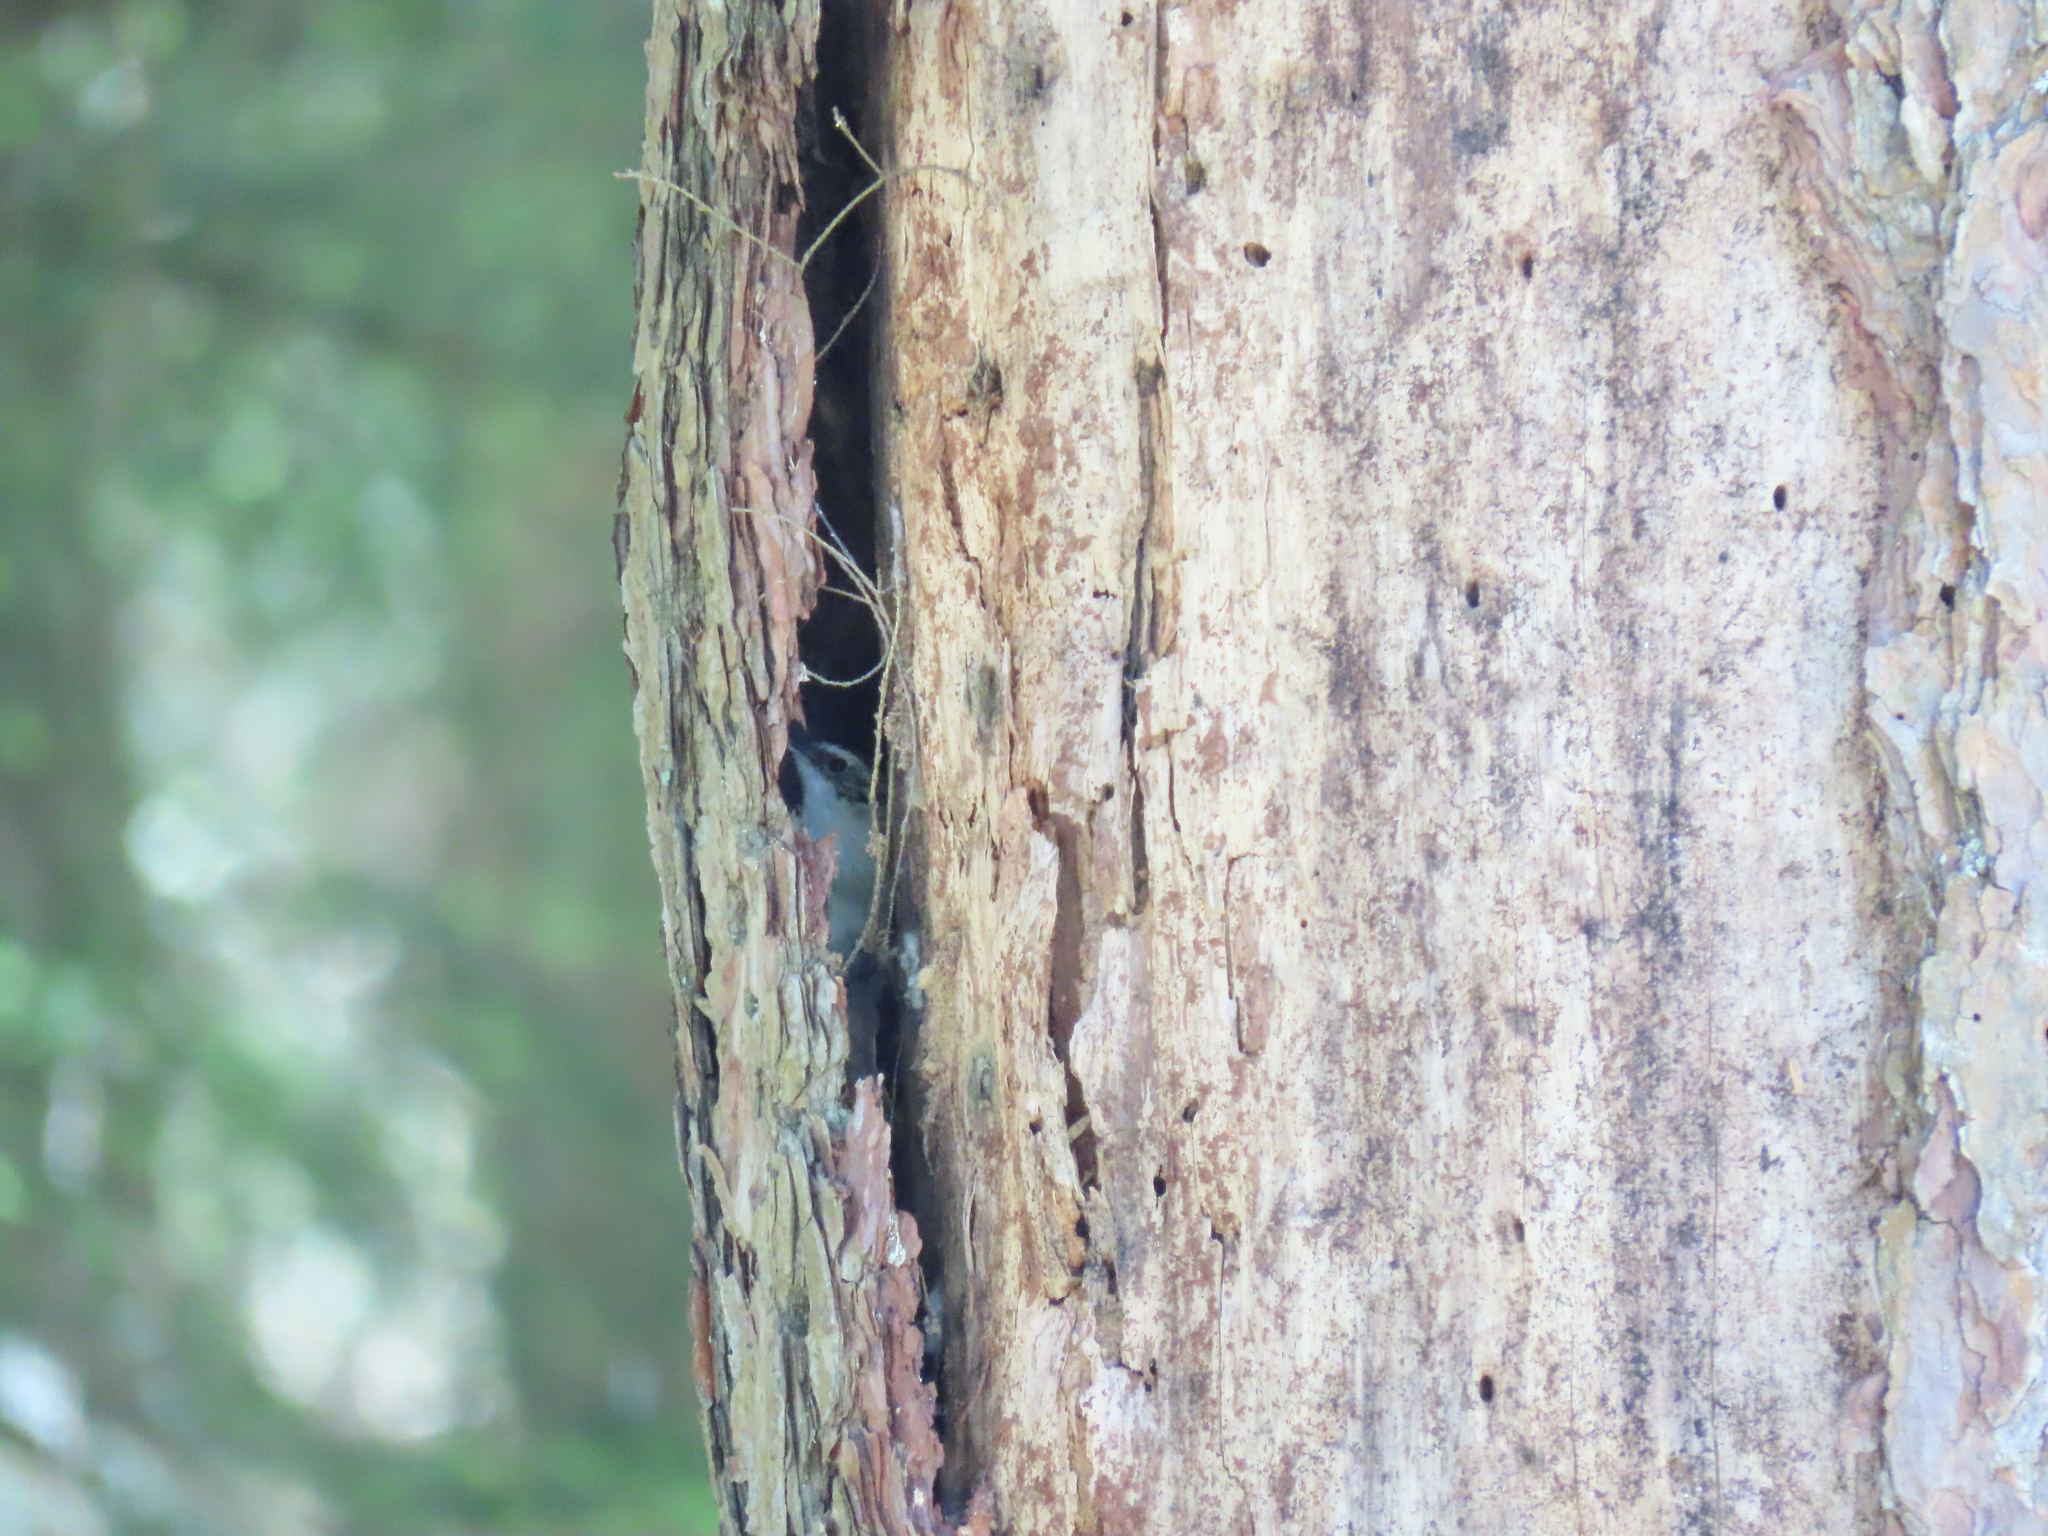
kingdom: Animalia
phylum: Chordata
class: Aves
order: Passeriformes
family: Certhiidae
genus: Certhia
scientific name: Certhia americana
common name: Brown creeper
